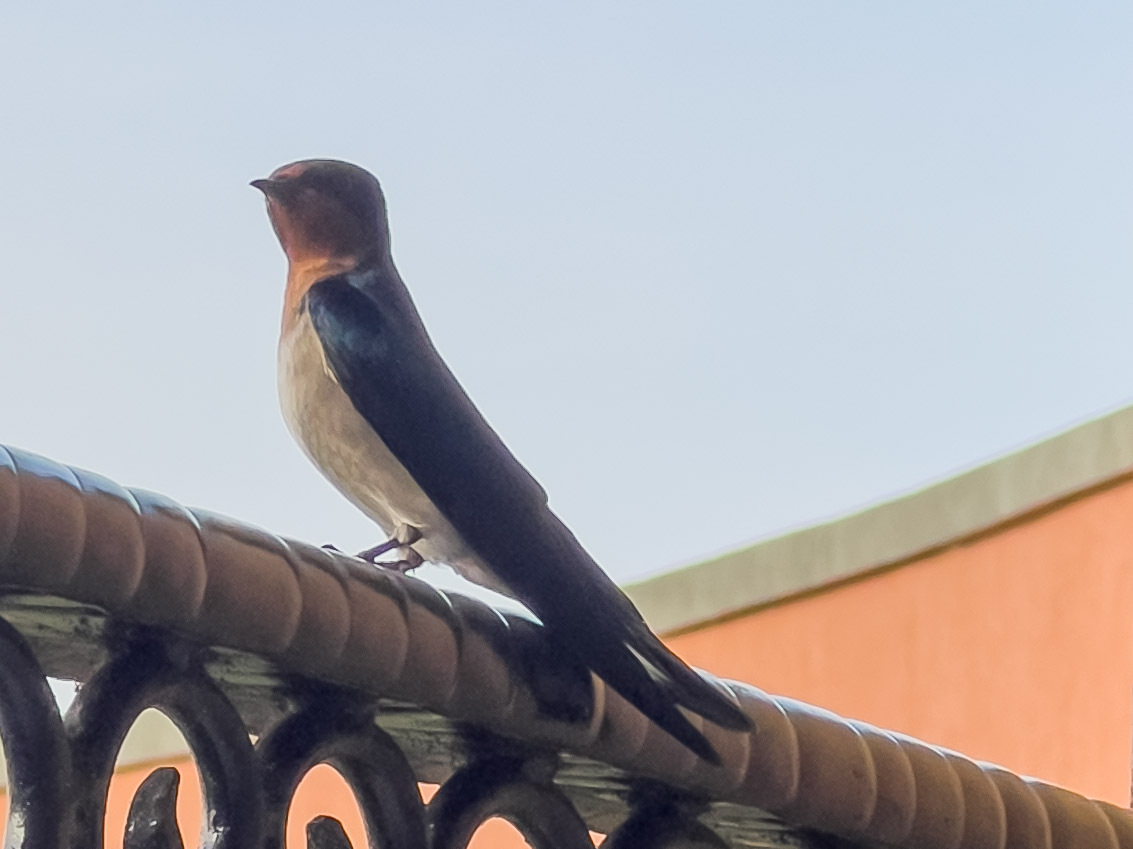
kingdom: Animalia
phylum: Chordata
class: Aves
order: Passeriformes
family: Hirundinidae
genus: Hirundo
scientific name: Hirundo angolensis
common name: Angola swallow
